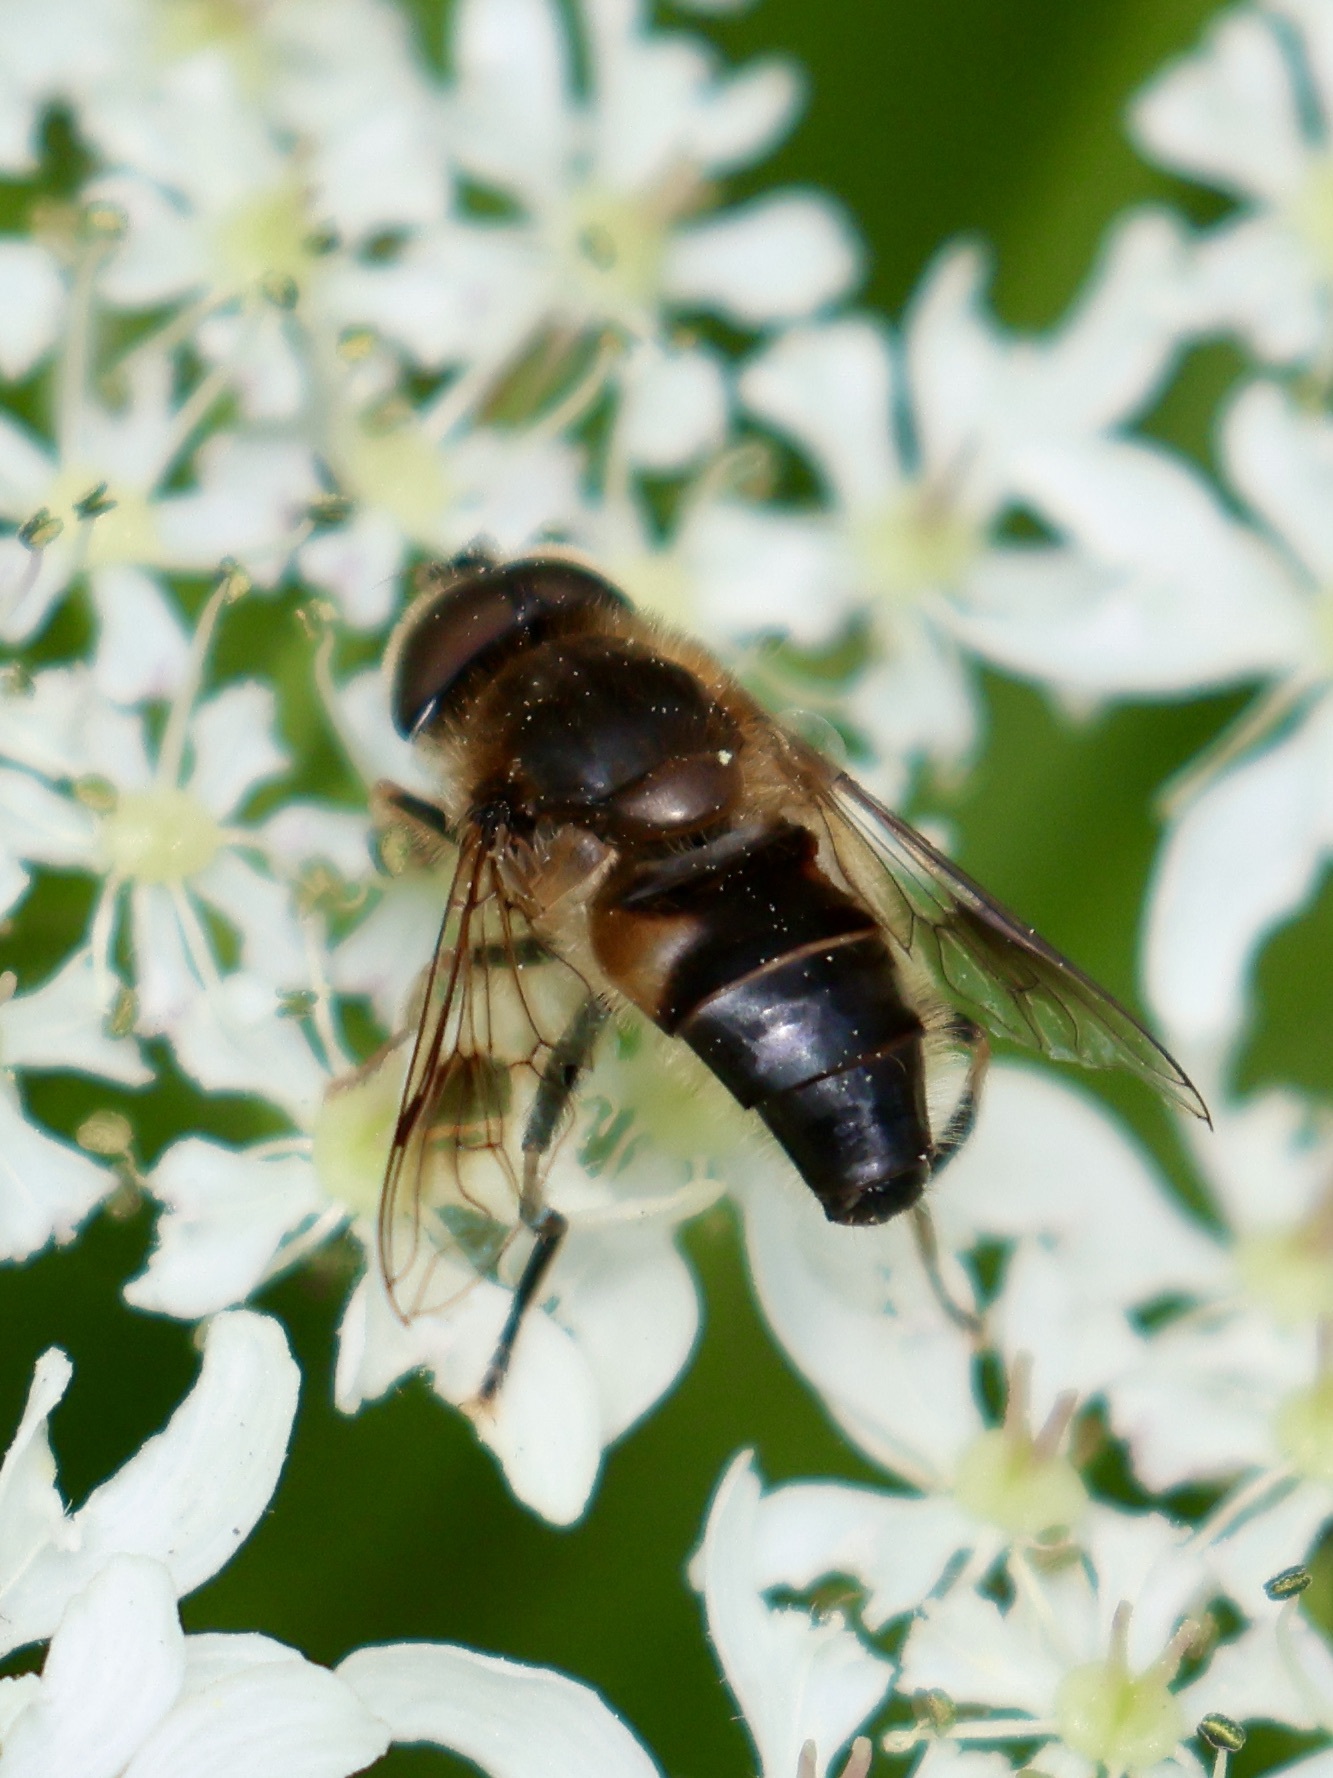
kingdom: Animalia
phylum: Arthropoda
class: Insecta
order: Diptera
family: Syrphidae
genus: Eristalis
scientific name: Eristalis pertinax
